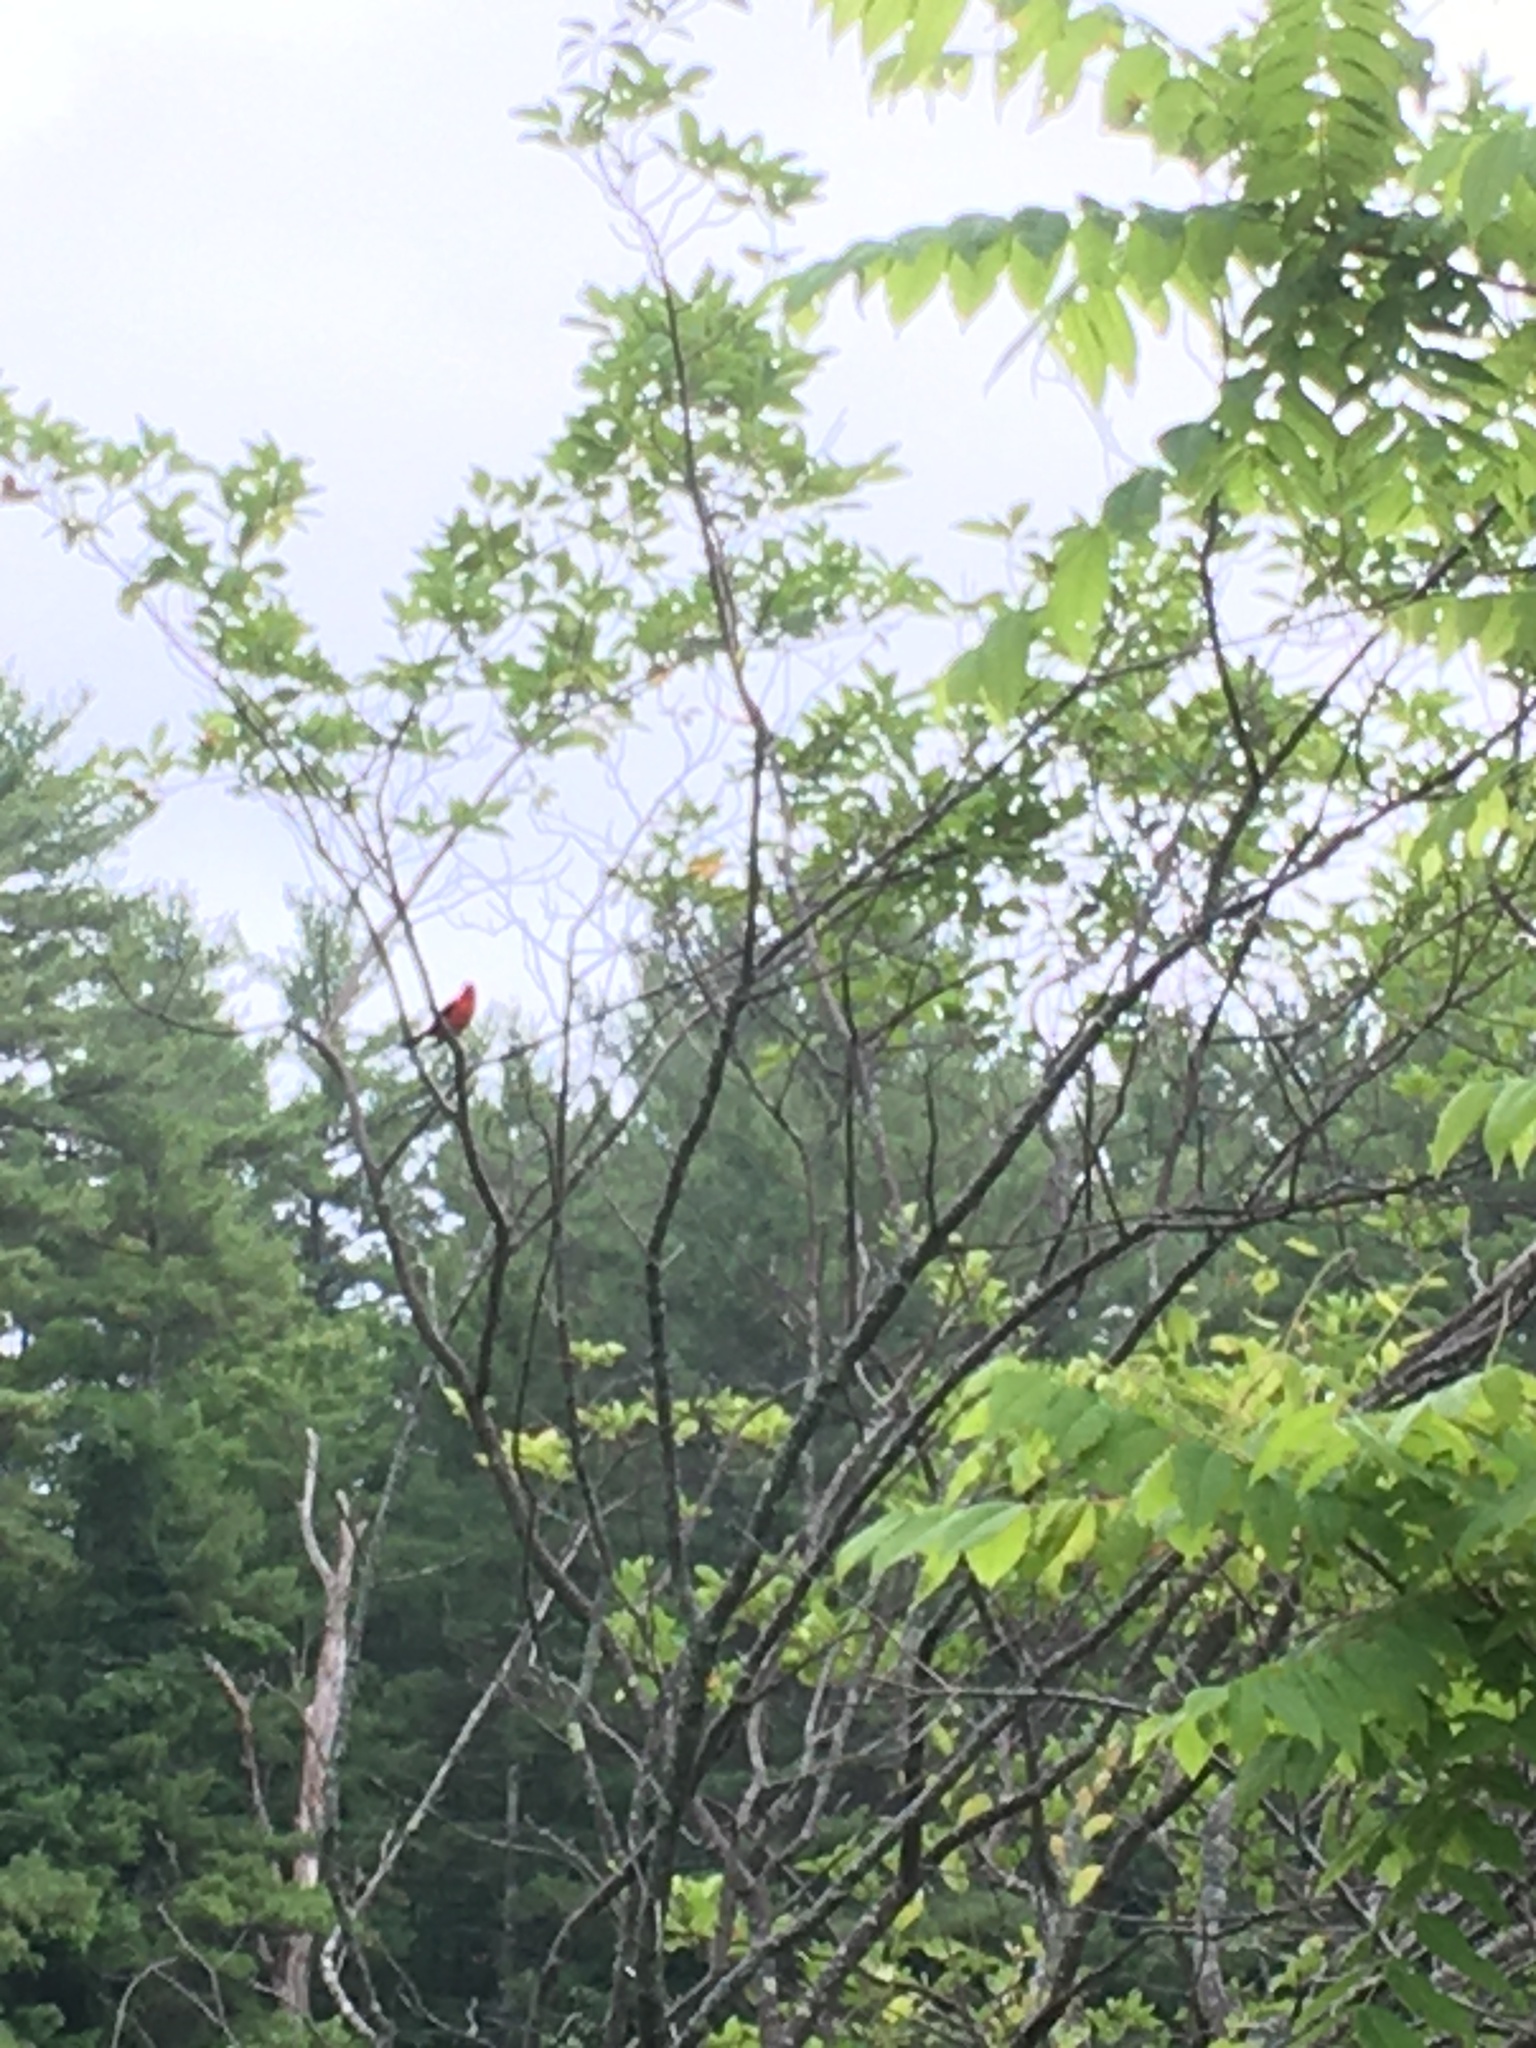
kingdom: Animalia
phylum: Chordata
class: Aves
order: Passeriformes
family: Cardinalidae
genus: Piranga
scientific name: Piranga olivacea
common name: Scarlet tanager
